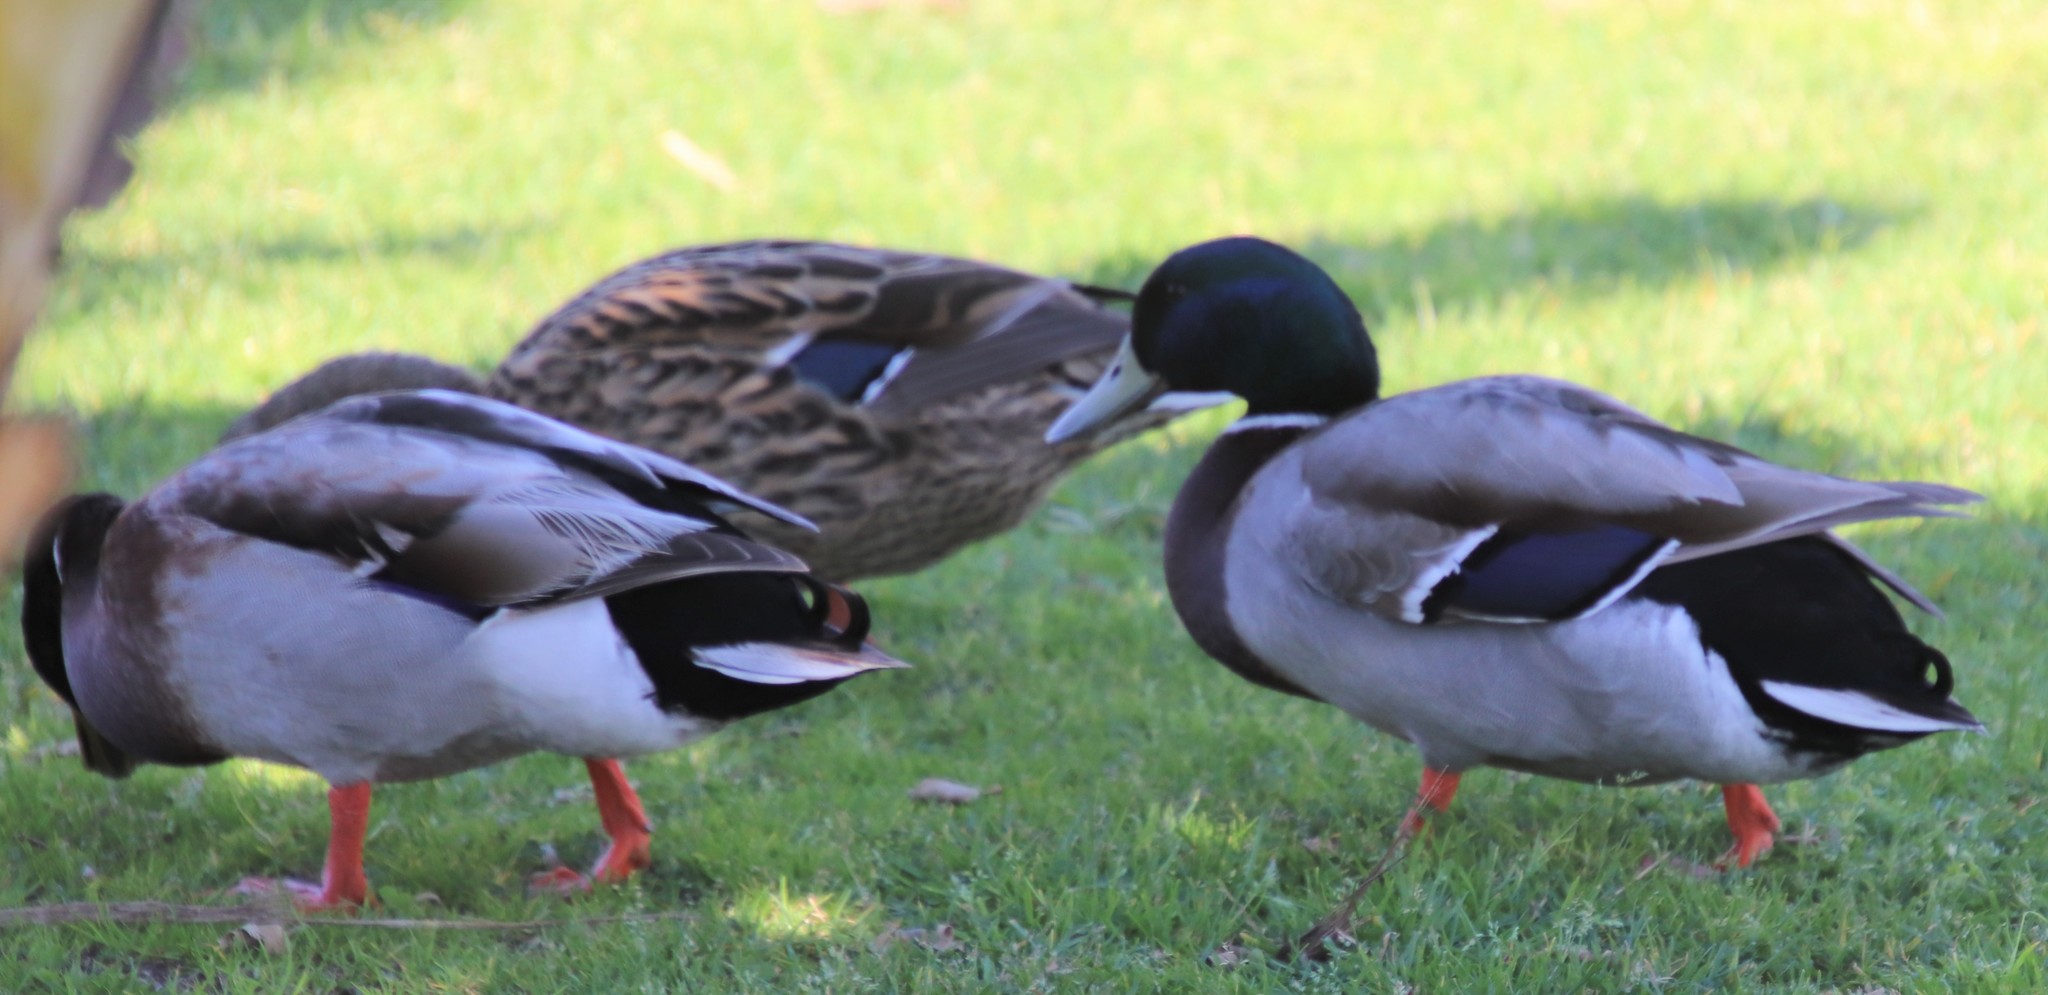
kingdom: Animalia
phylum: Chordata
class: Aves
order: Anseriformes
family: Anatidae
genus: Anas
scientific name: Anas platyrhynchos
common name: Mallard
